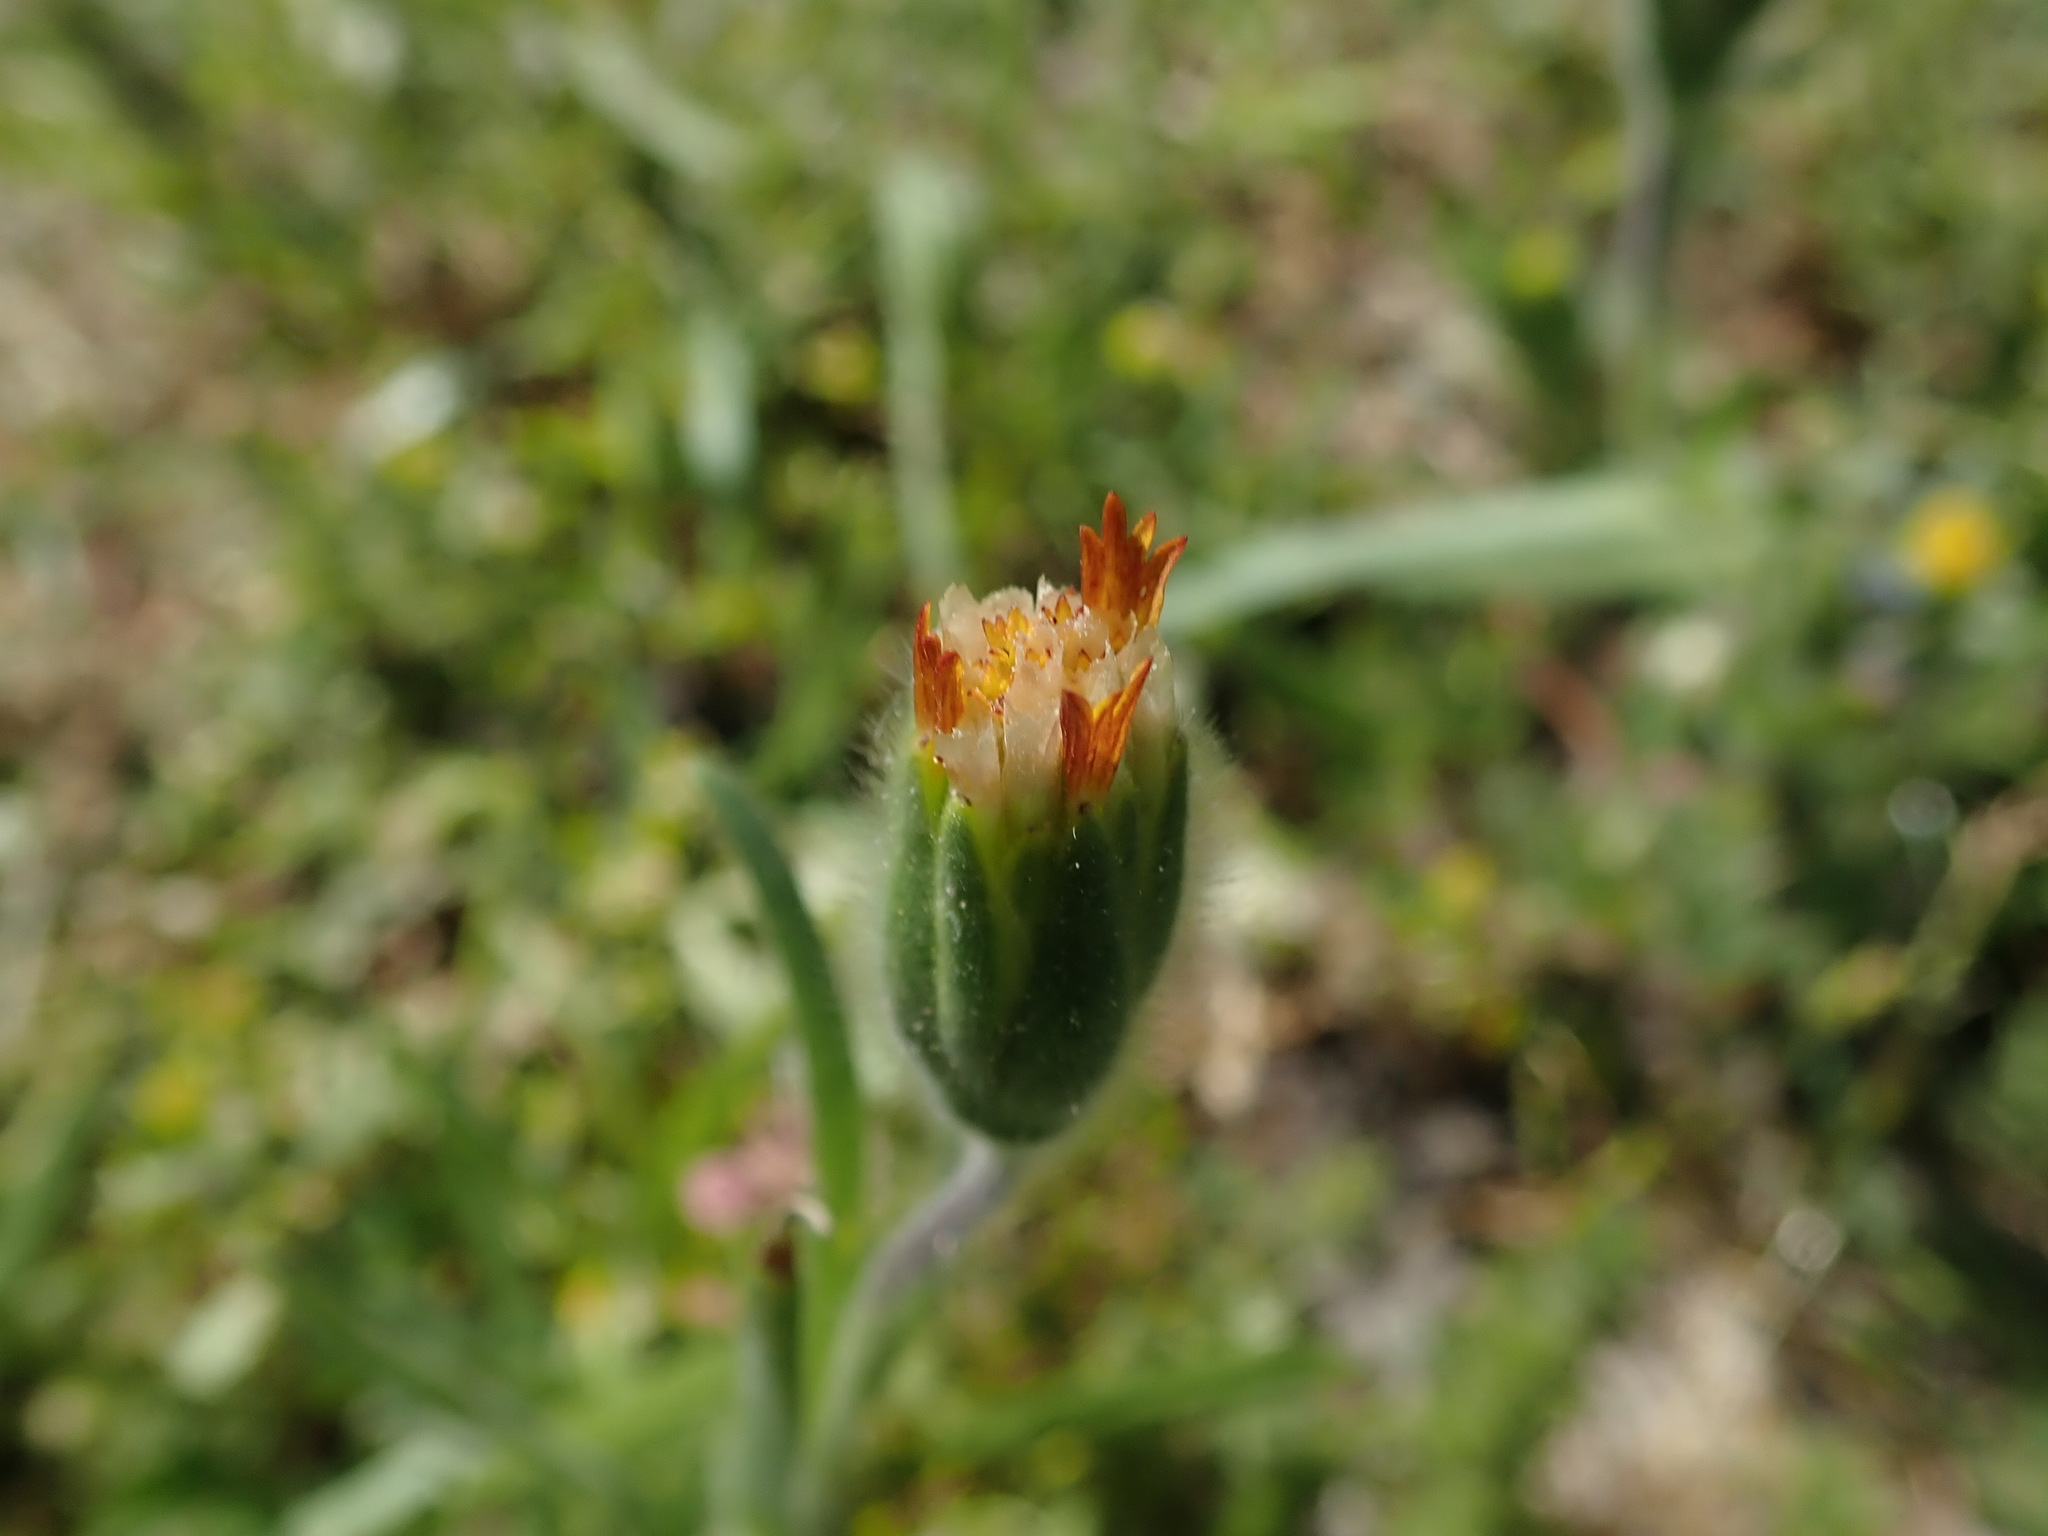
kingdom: Plantae
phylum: Tracheophyta
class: Magnoliopsida
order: Asterales
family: Asteraceae
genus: Achyrachaena
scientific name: Achyrachaena mollis
